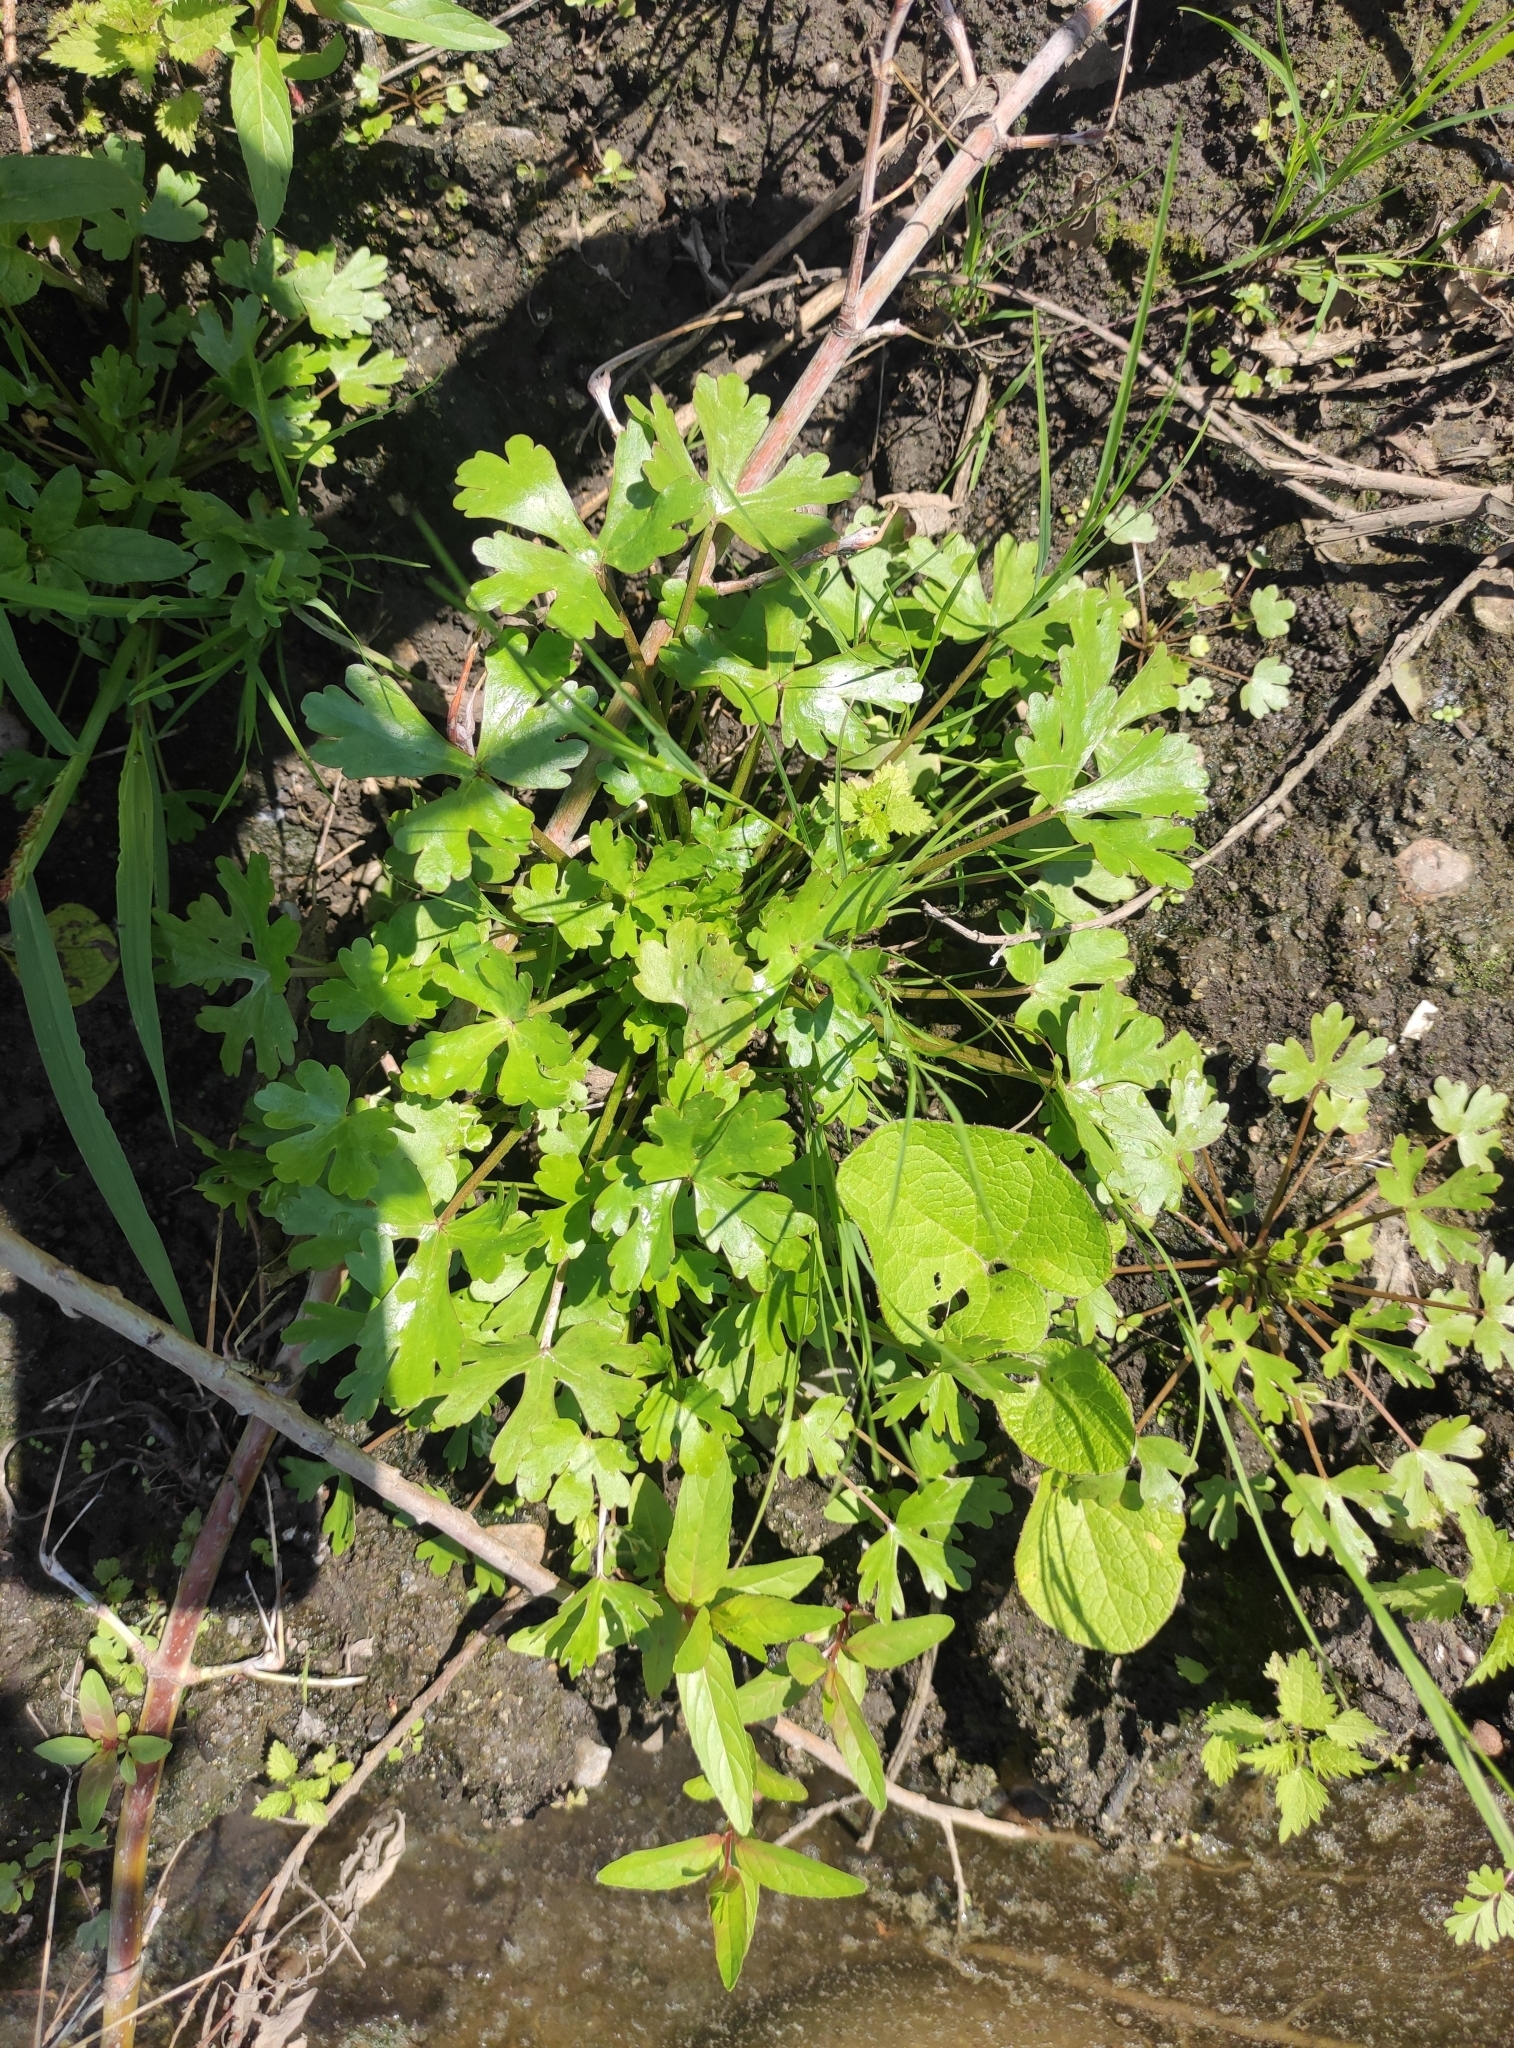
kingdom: Plantae
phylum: Tracheophyta
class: Magnoliopsida
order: Ranunculales
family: Ranunculaceae
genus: Ranunculus
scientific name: Ranunculus sceleratus
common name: Celery-leaved buttercup
